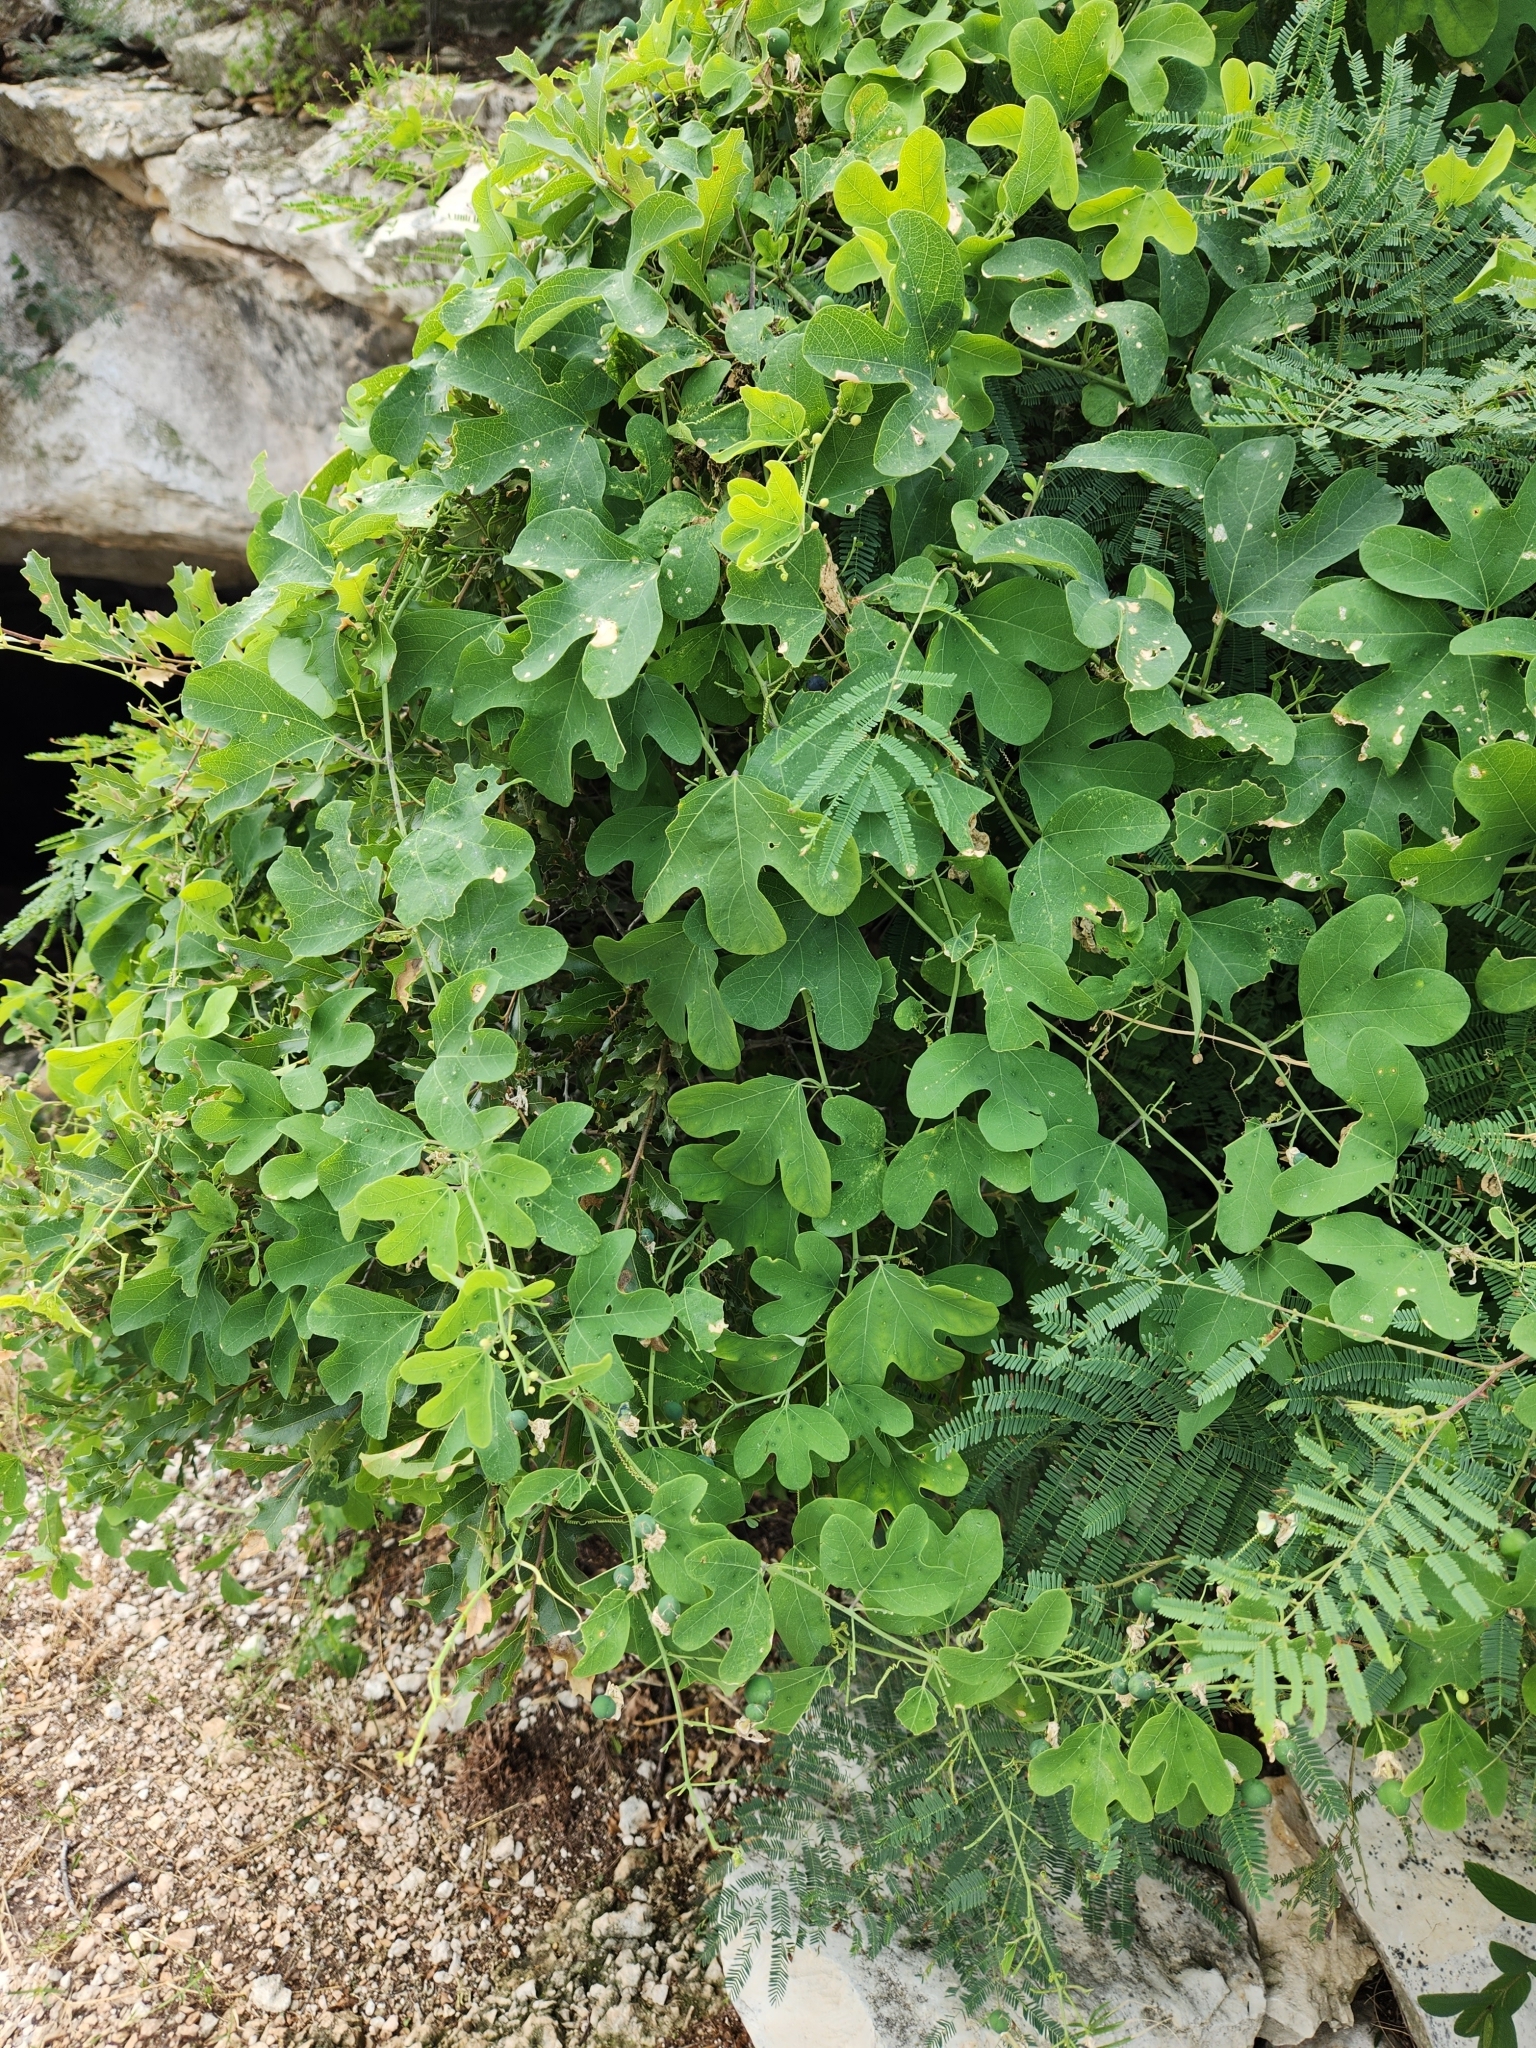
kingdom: Plantae
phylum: Tracheophyta
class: Magnoliopsida
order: Malpighiales
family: Passifloraceae
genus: Passiflora
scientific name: Passiflora affinis
